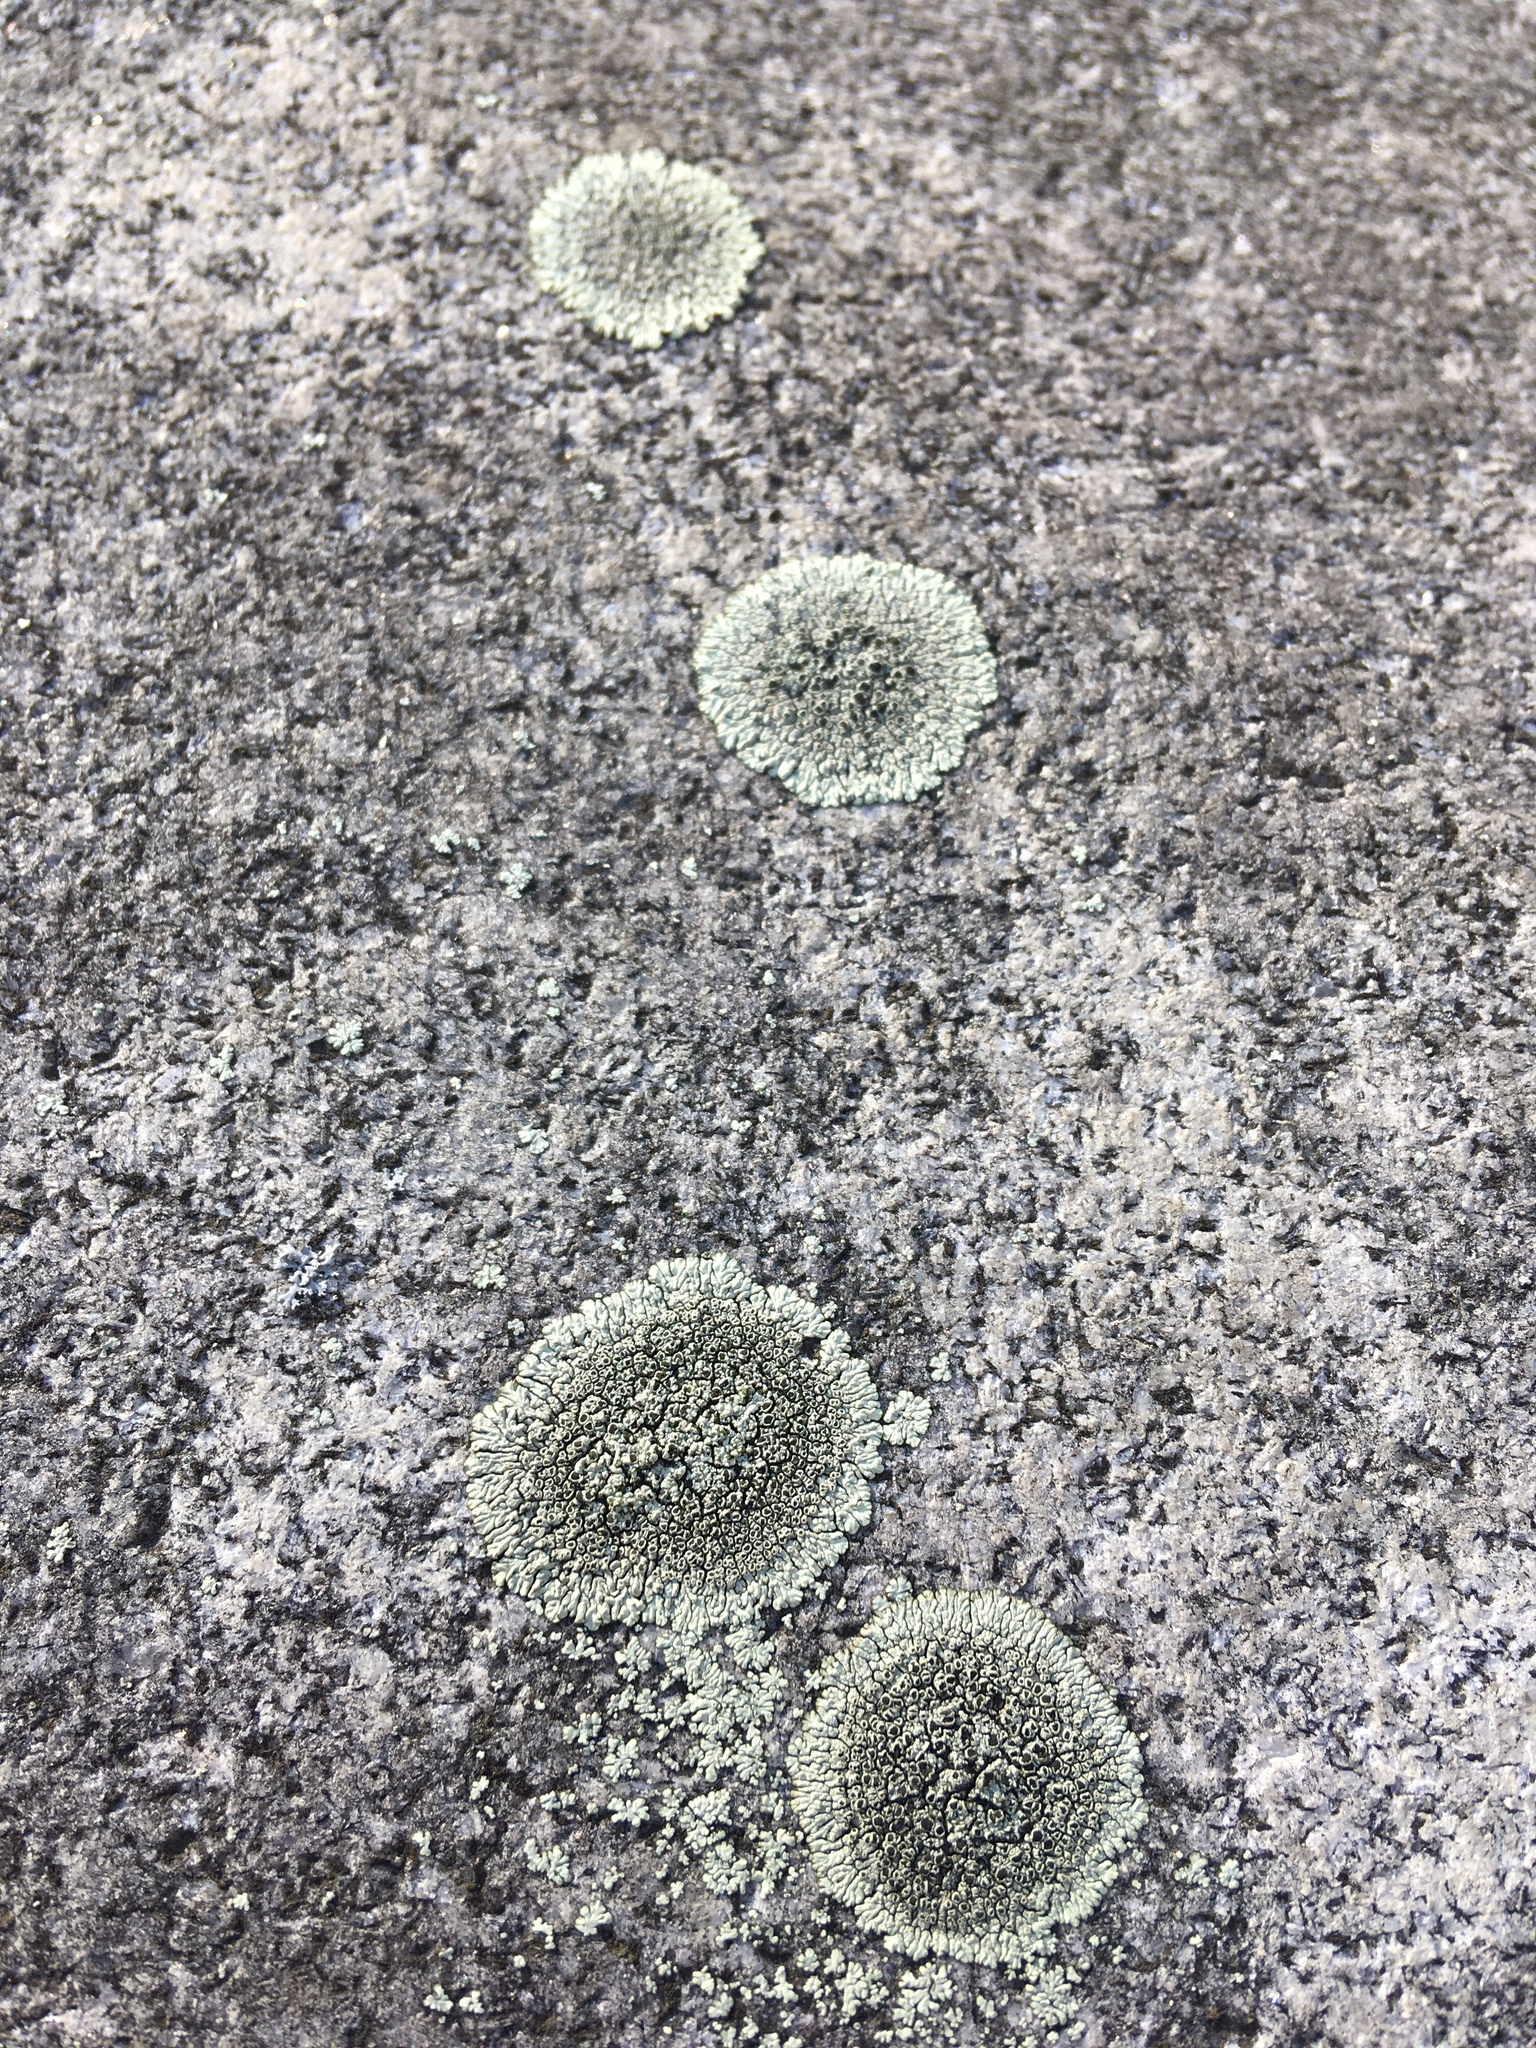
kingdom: Fungi
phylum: Ascomycota
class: Lecanoromycetes
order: Caliciales
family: Caliciaceae
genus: Dimelaena
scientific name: Dimelaena oreina
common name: Golden moonglow lichen
